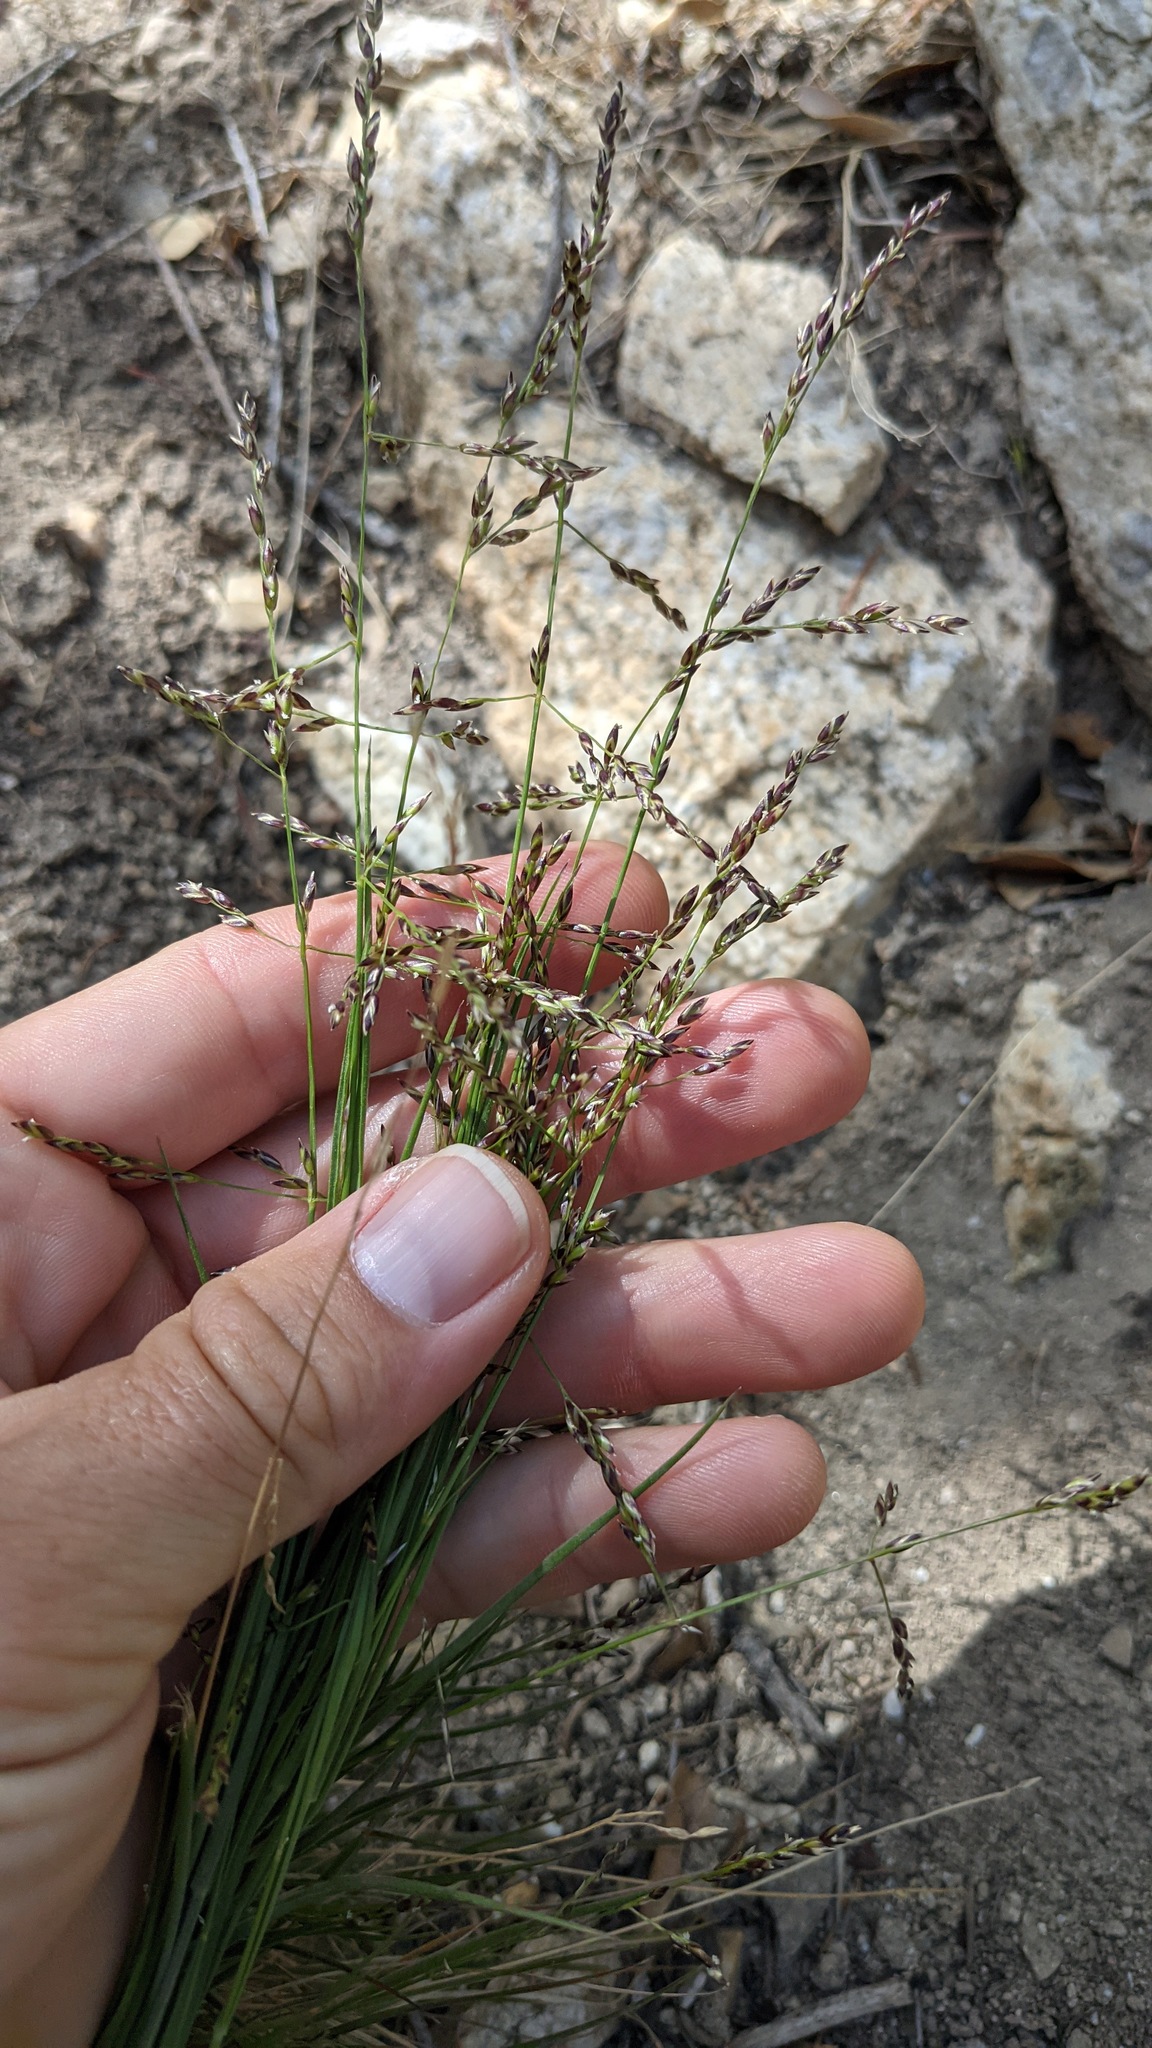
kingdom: Plantae
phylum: Tracheophyta
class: Liliopsida
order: Poales
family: Poaceae
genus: Melica
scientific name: Melica imperfecta
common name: California melic
